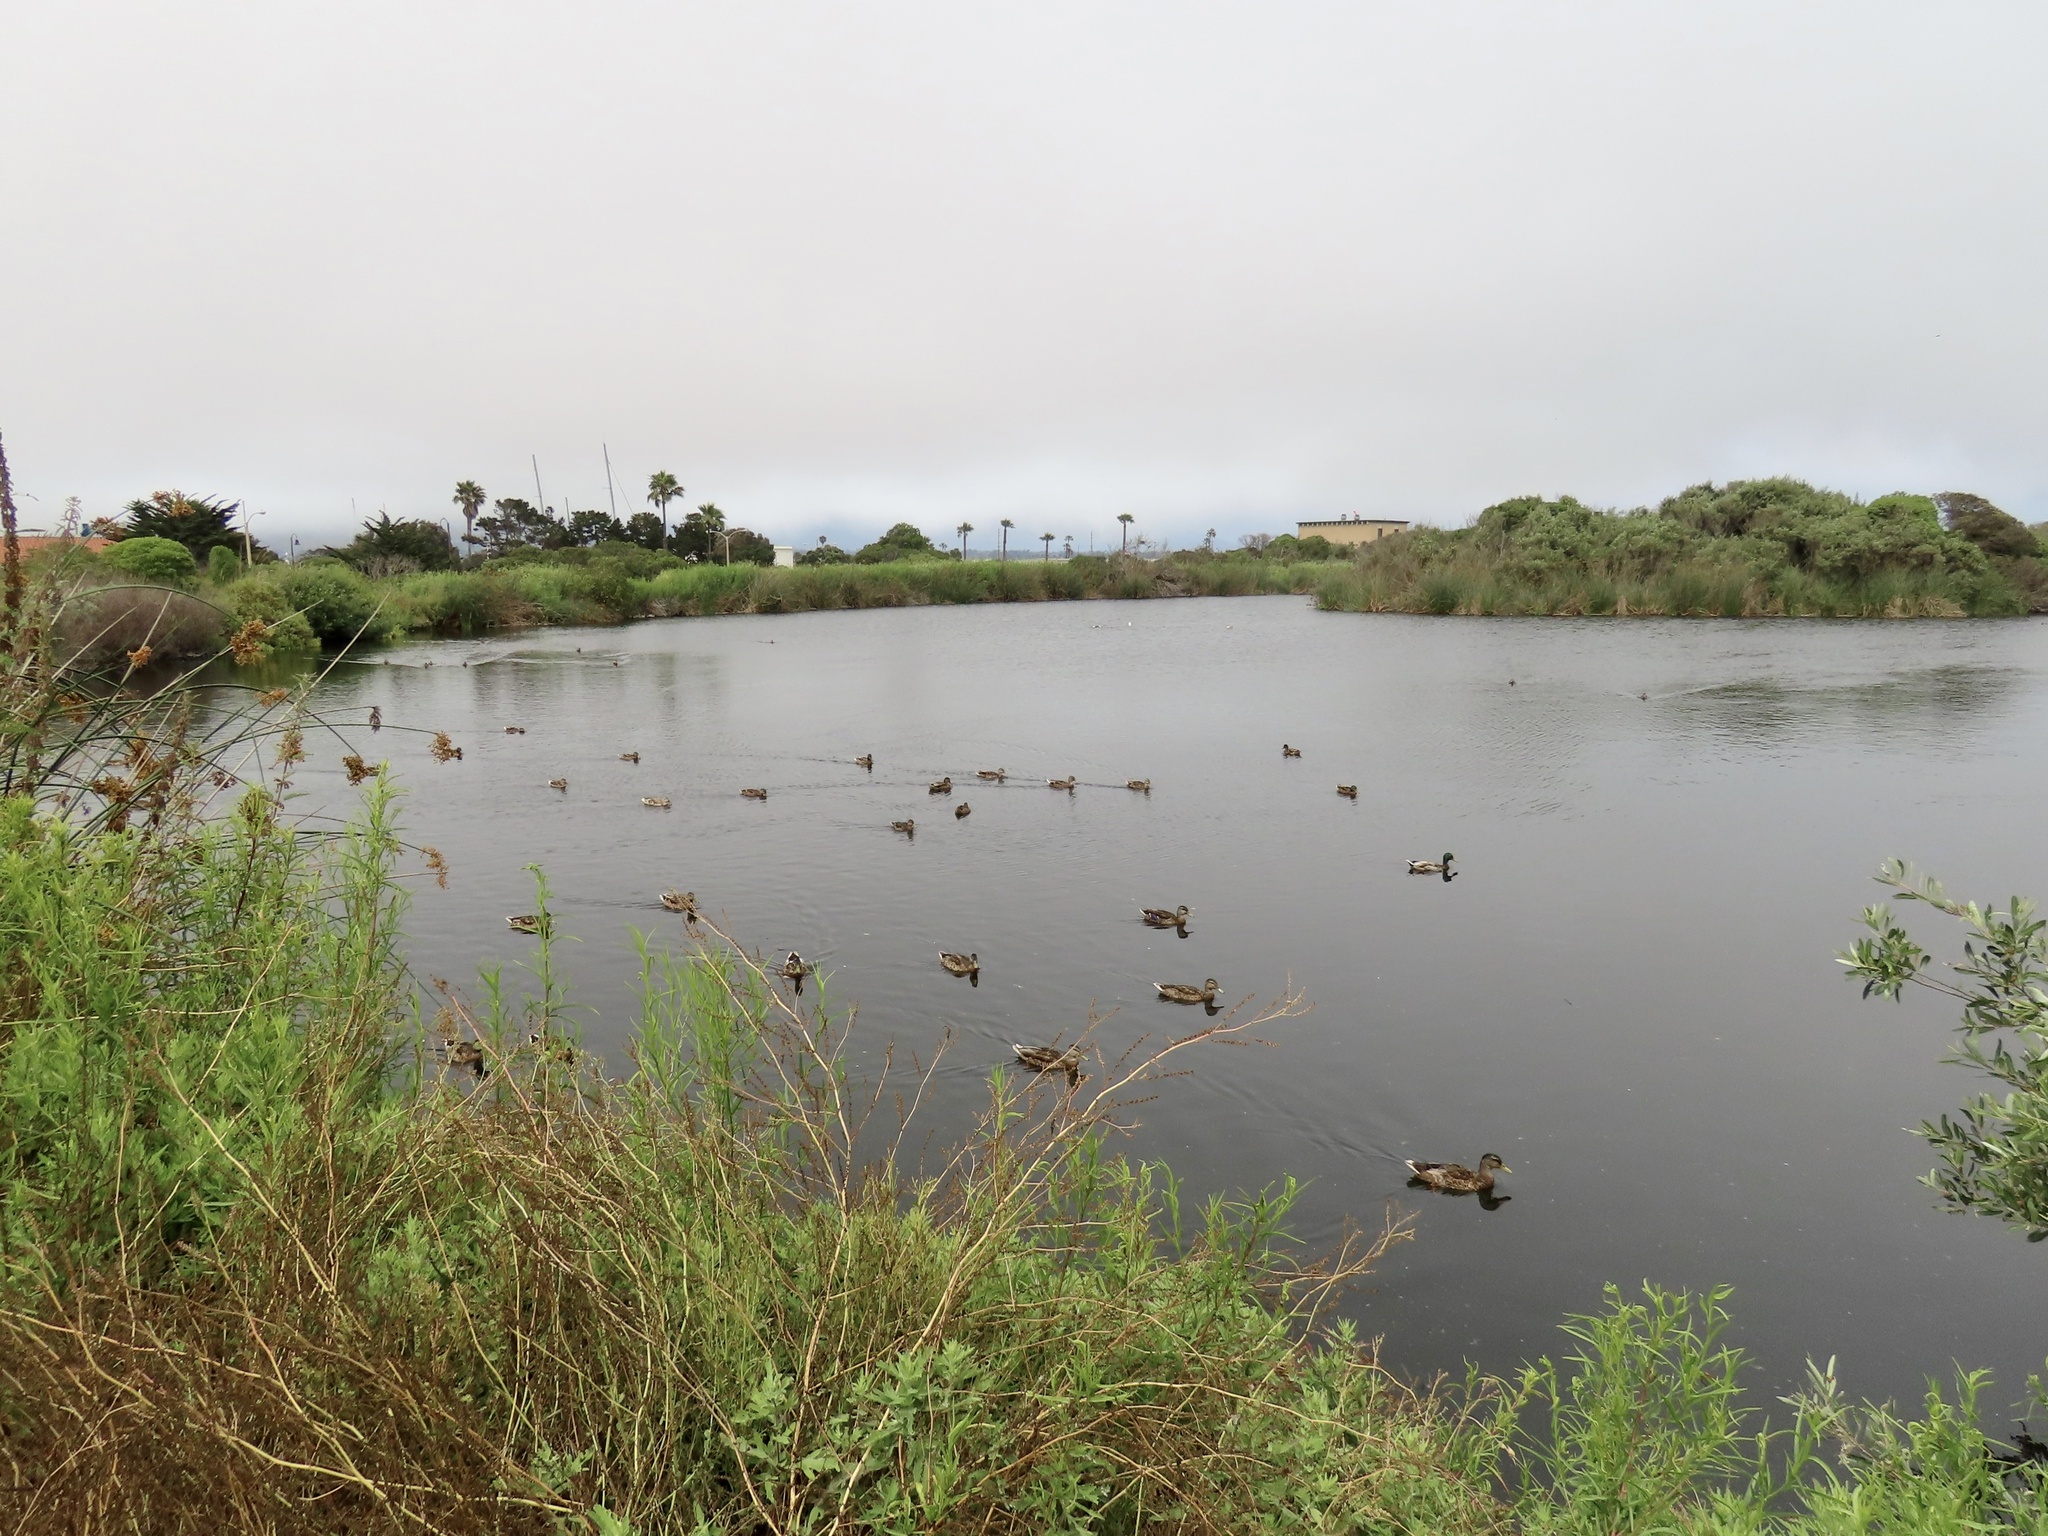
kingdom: Animalia
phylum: Chordata
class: Aves
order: Anseriformes
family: Anatidae
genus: Anas
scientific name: Anas platyrhynchos
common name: Mallard
